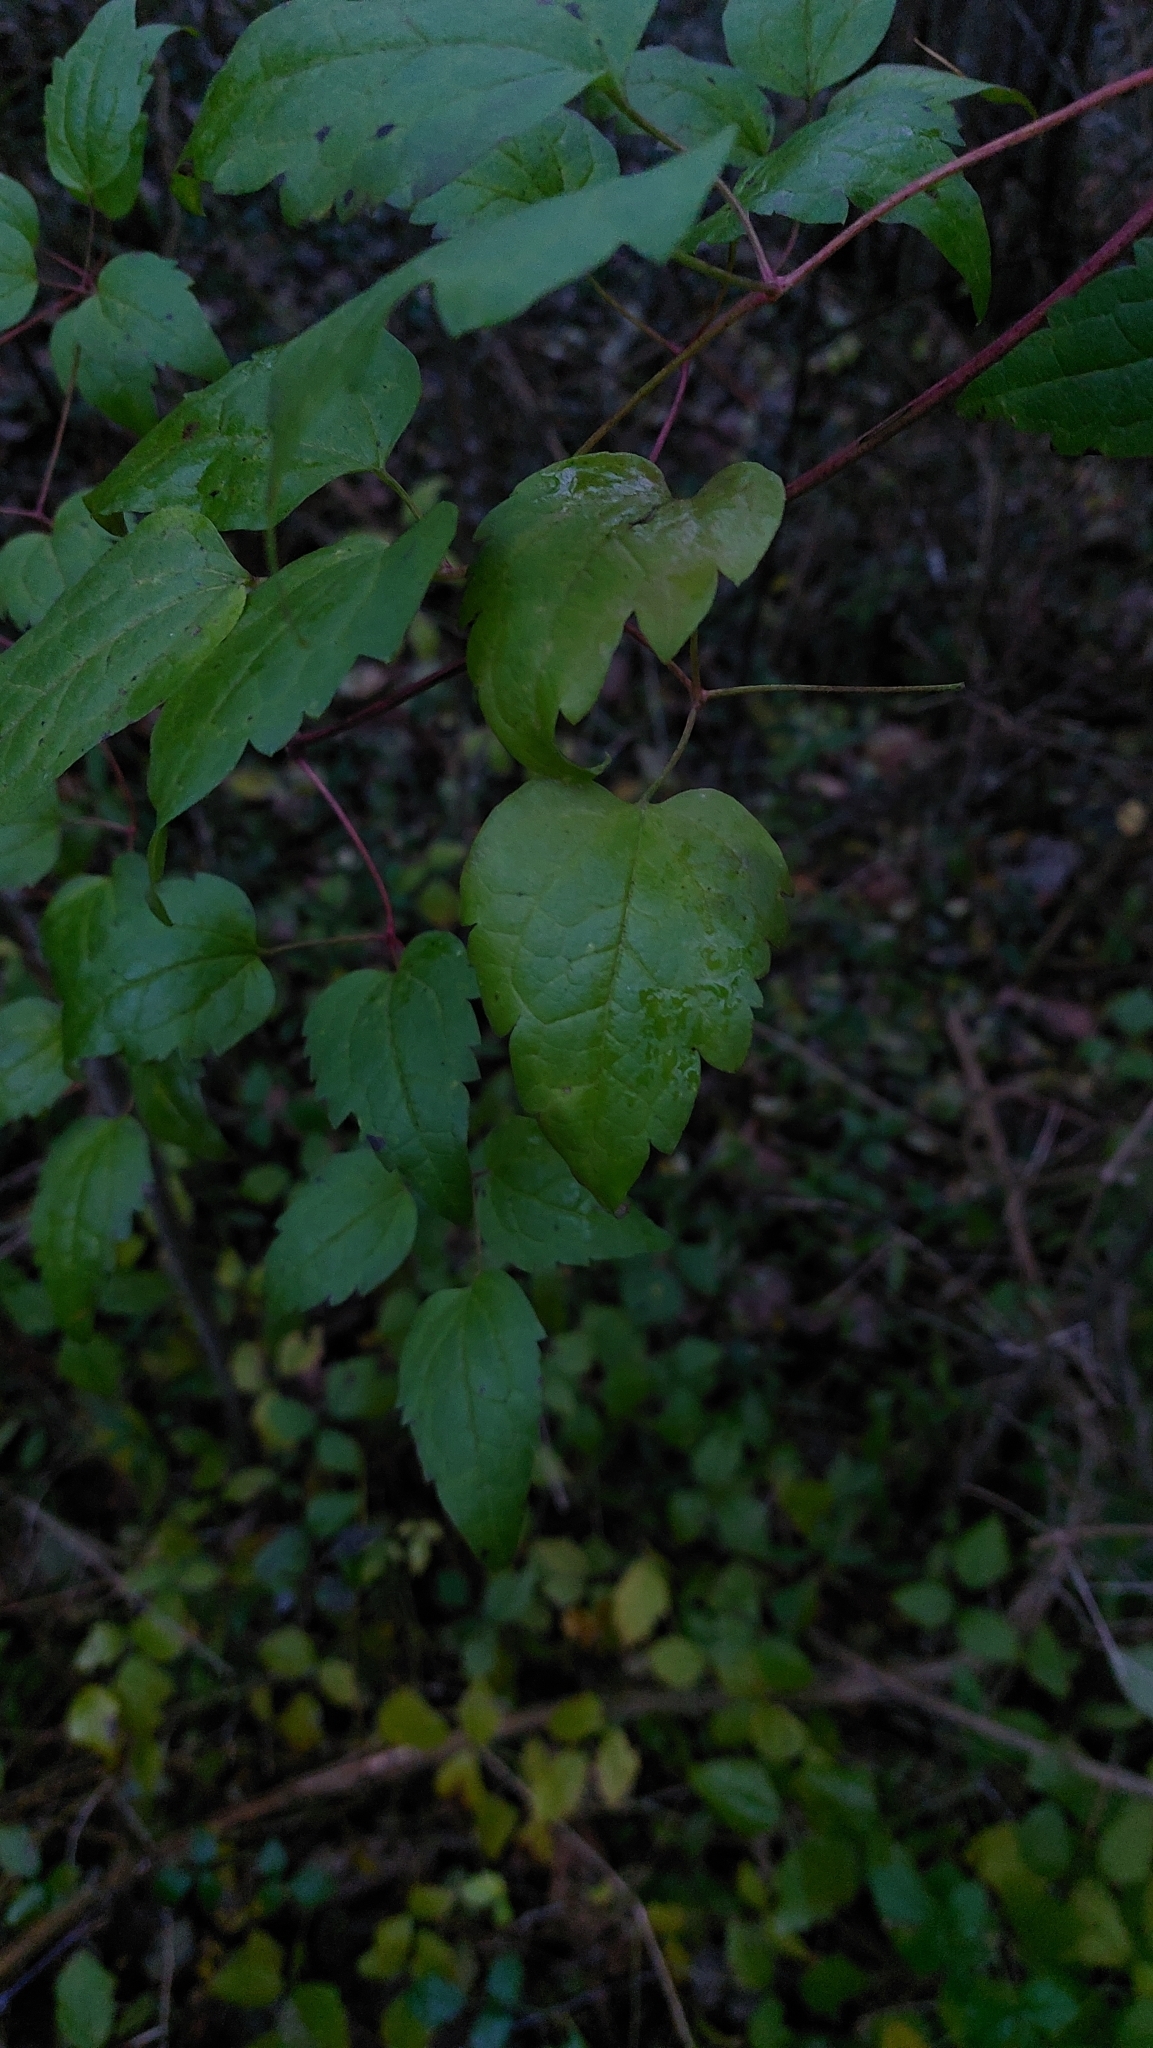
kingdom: Plantae
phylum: Tracheophyta
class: Magnoliopsida
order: Ranunculales
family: Ranunculaceae
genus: Clematis
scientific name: Clematis vitalba
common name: Evergreen clematis
